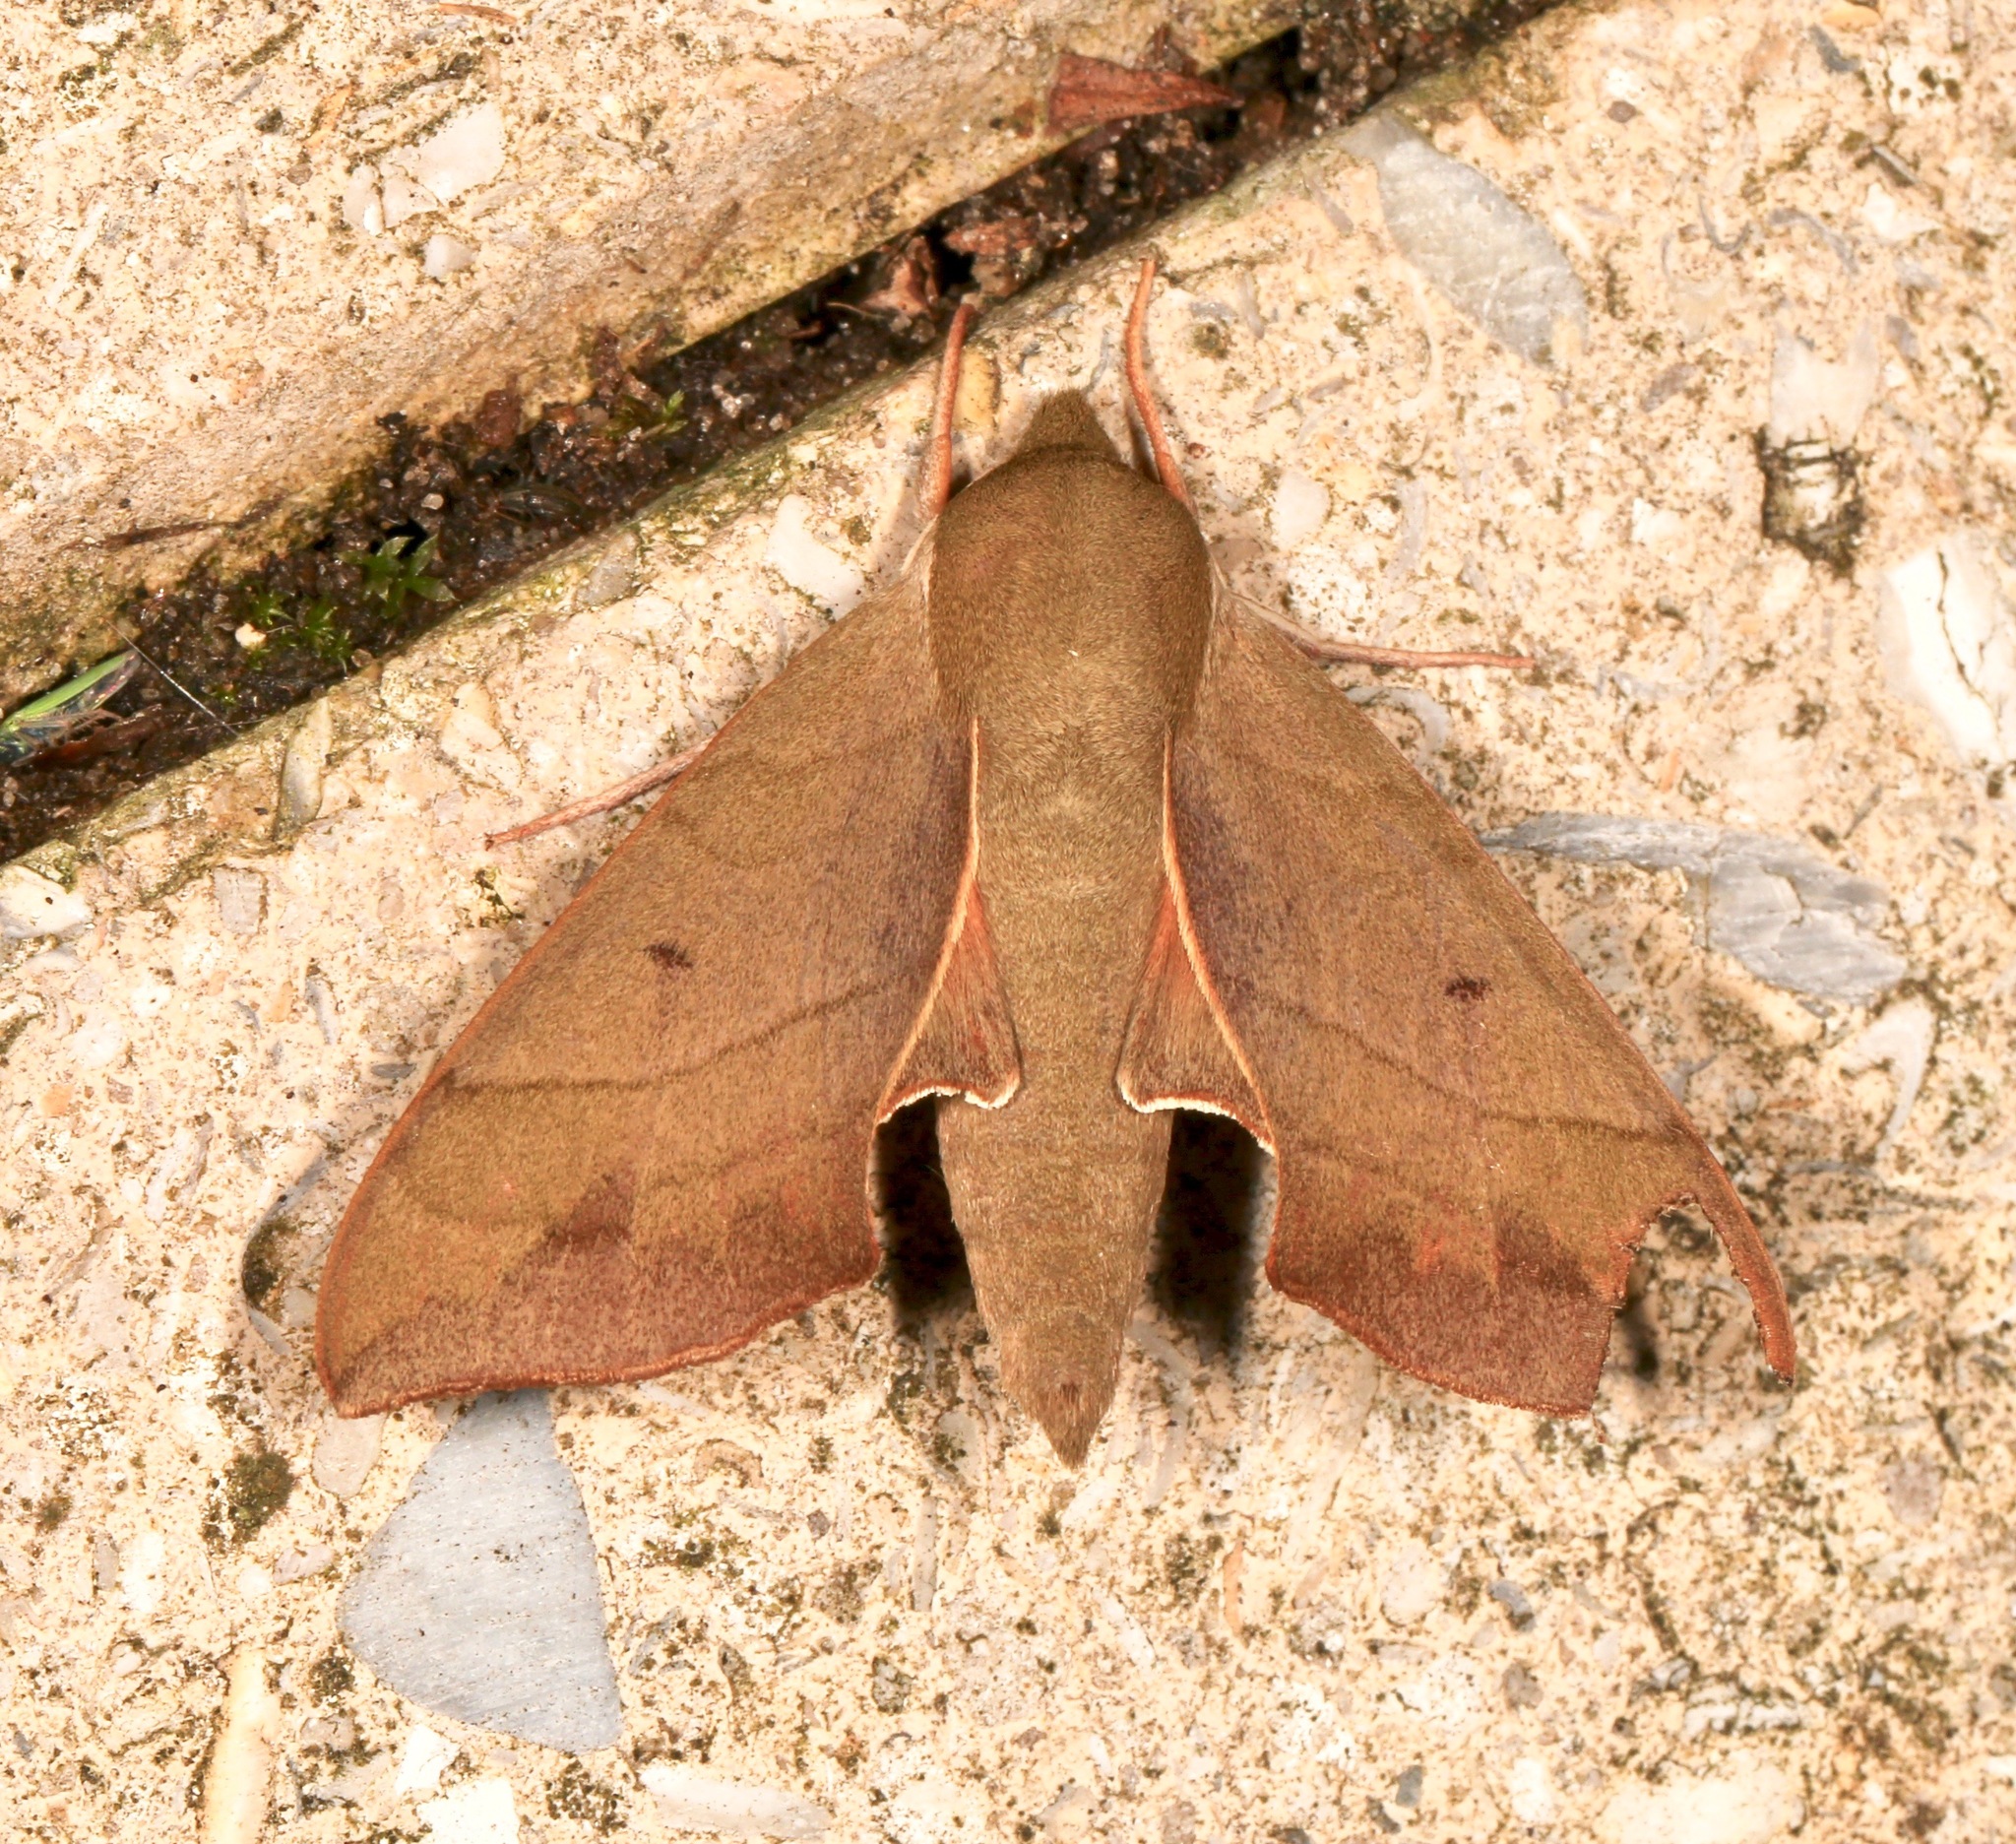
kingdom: Animalia
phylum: Arthropoda
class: Insecta
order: Lepidoptera
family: Sphingidae
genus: Darapsa
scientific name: Darapsa myron
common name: Hog sphinx
